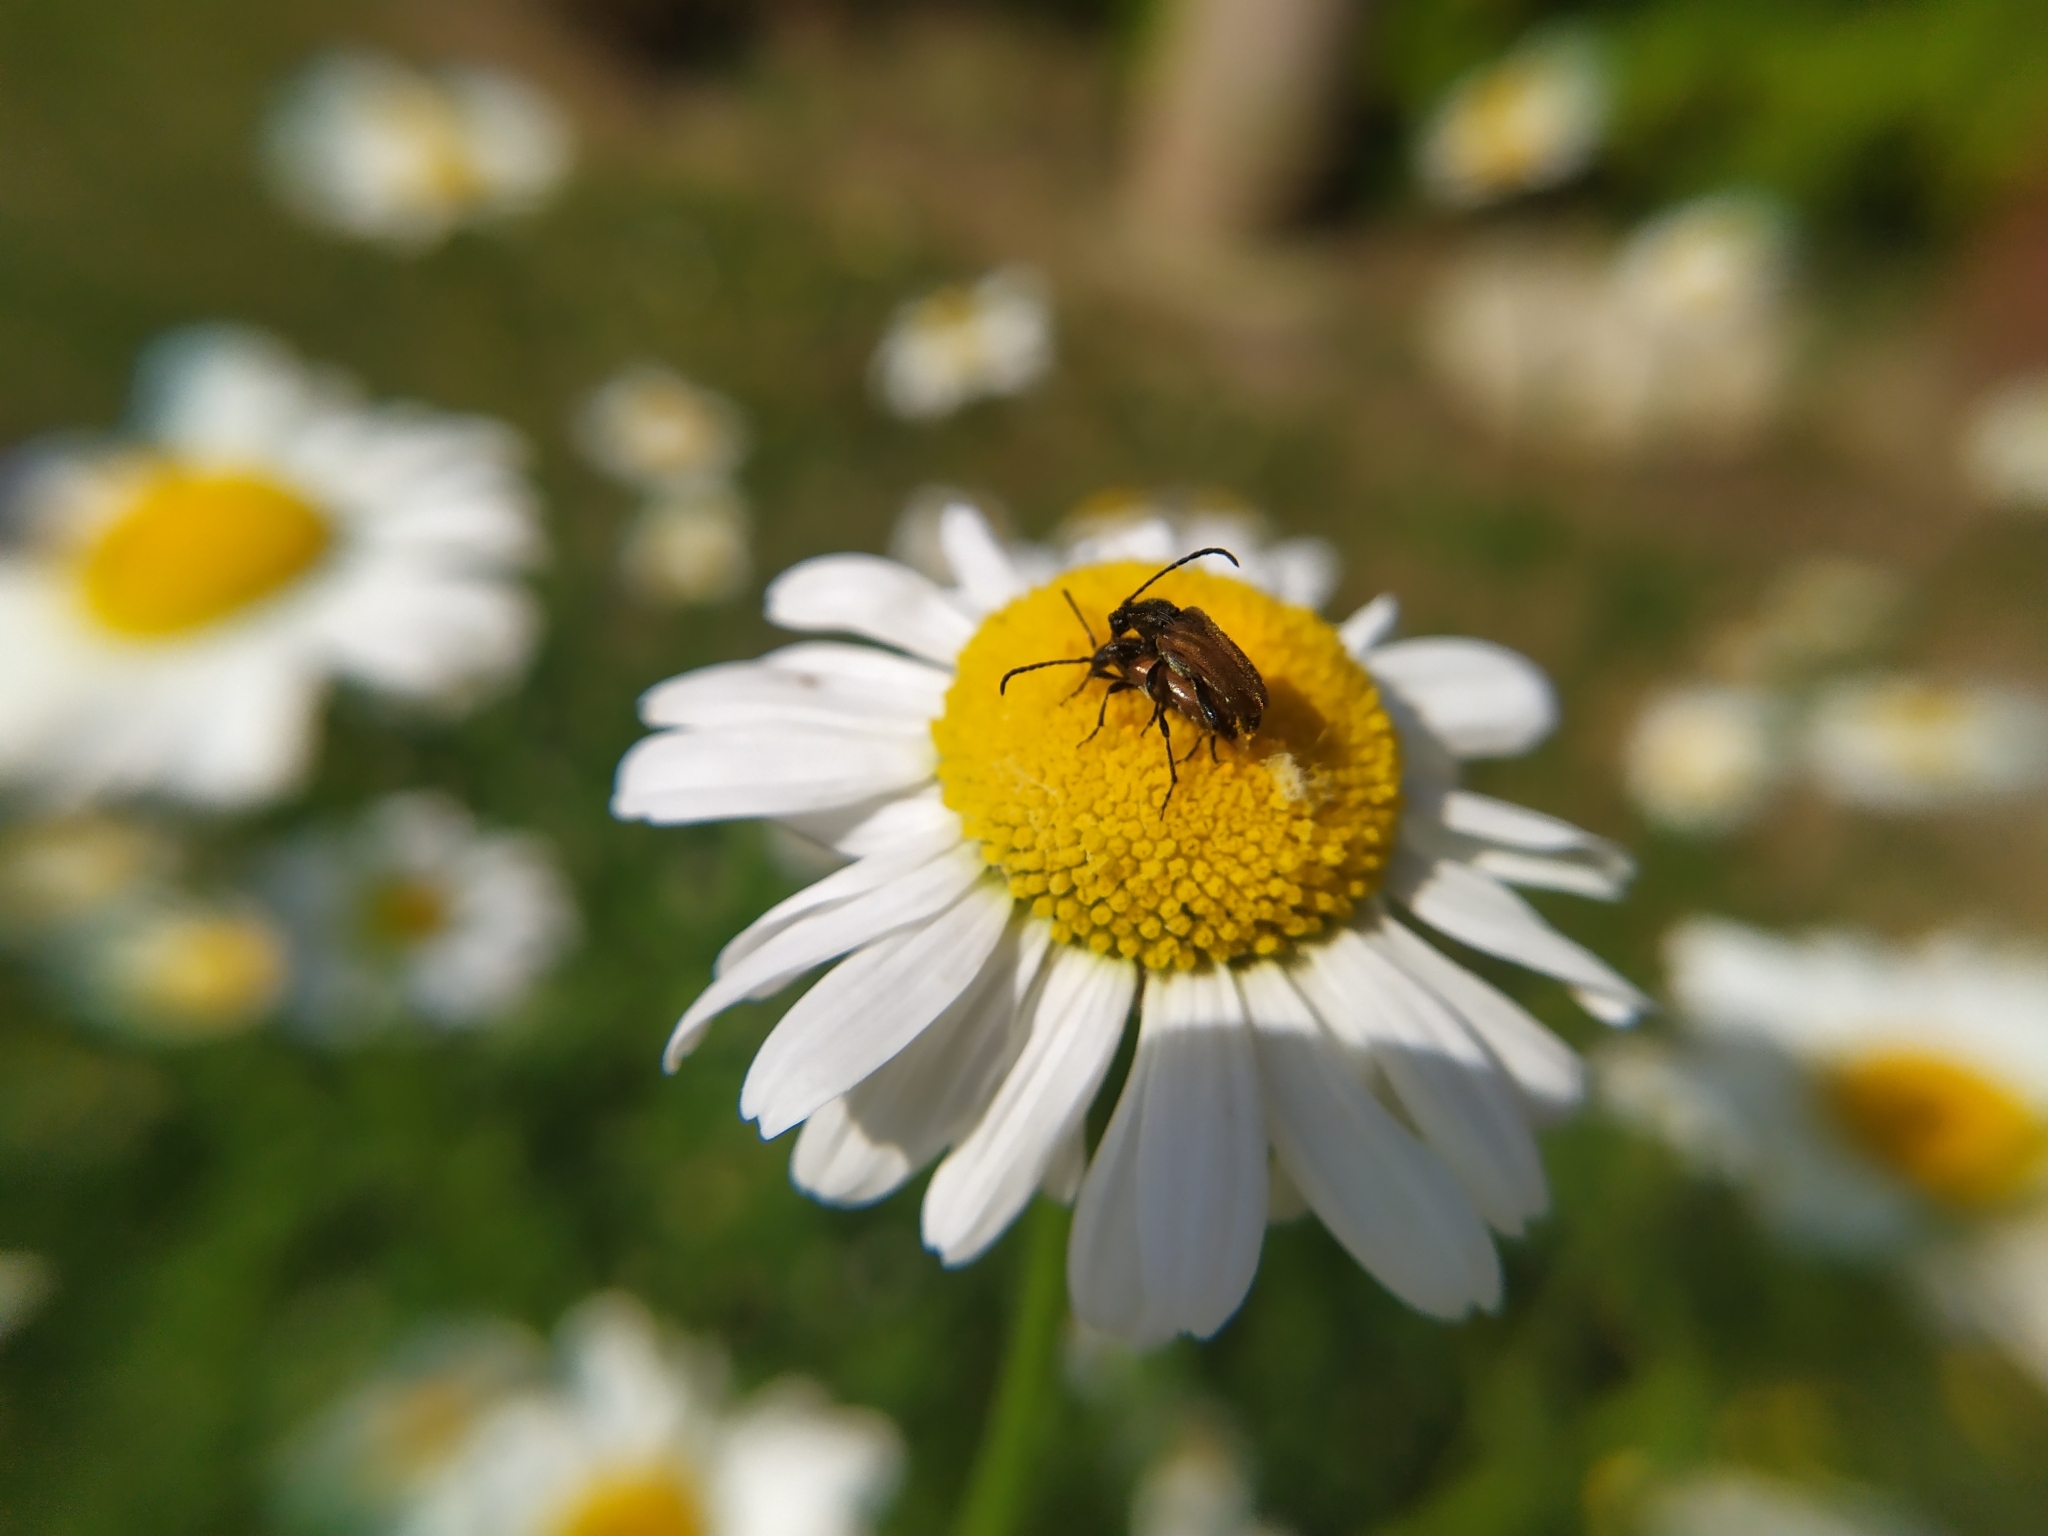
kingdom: Animalia
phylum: Arthropoda
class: Insecta
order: Coleoptera
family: Cerambycidae
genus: Pseudovadonia
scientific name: Pseudovadonia livida
